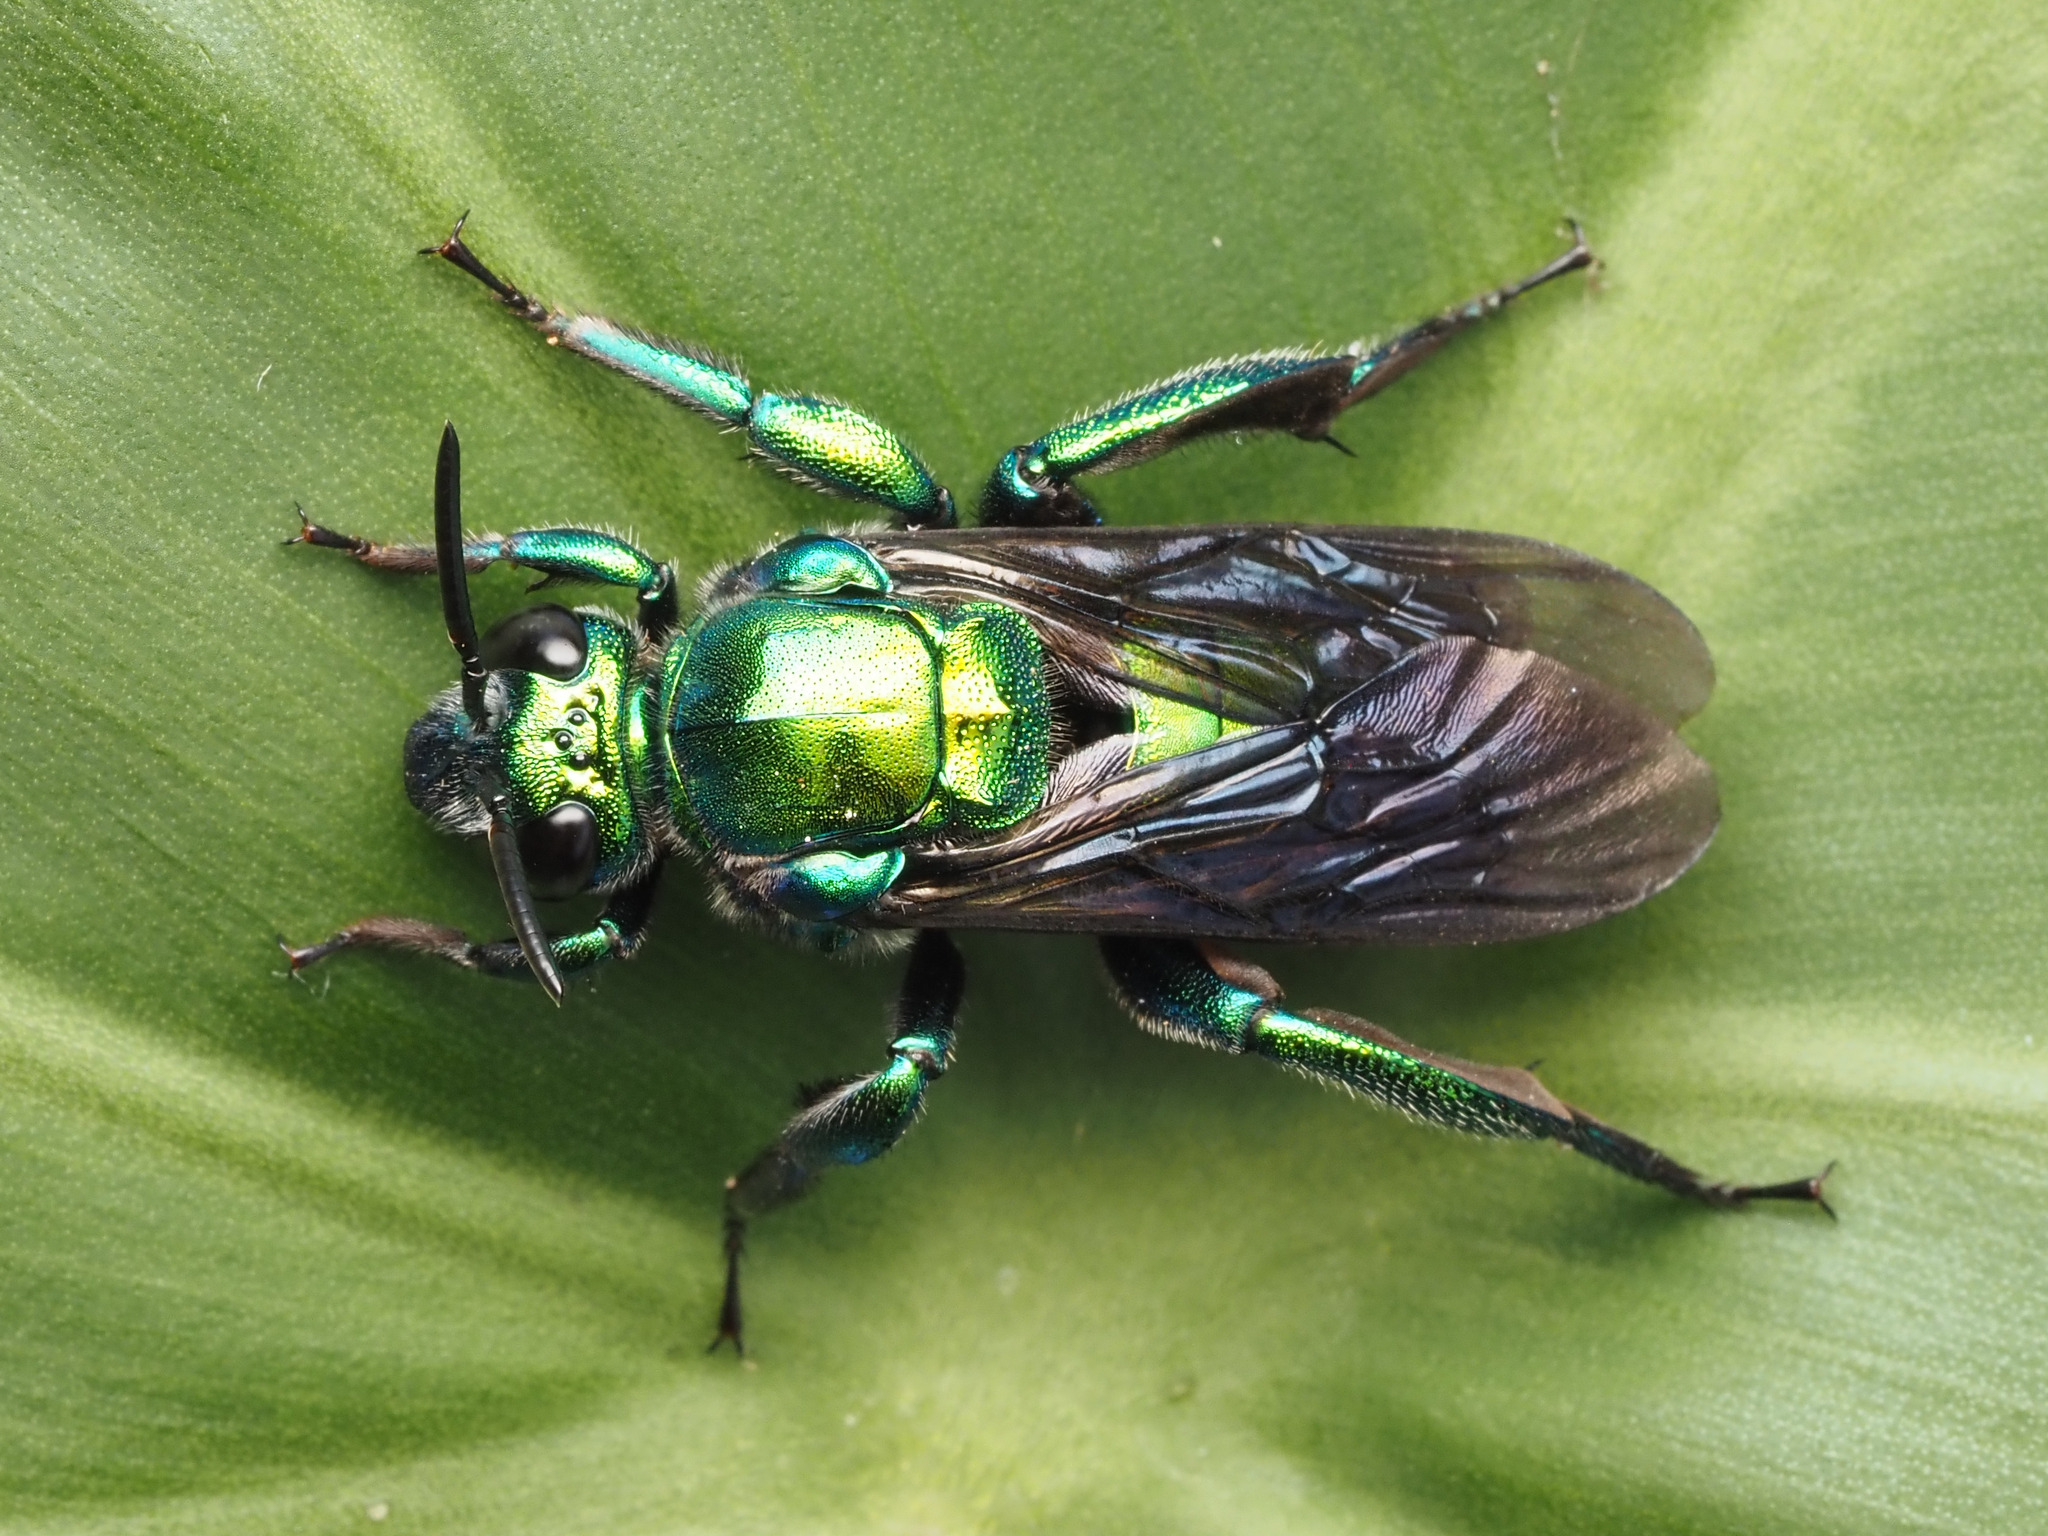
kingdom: Animalia
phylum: Arthropoda
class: Insecta
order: Hymenoptera
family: Apidae
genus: Exaerete
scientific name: Exaerete smaragdina
